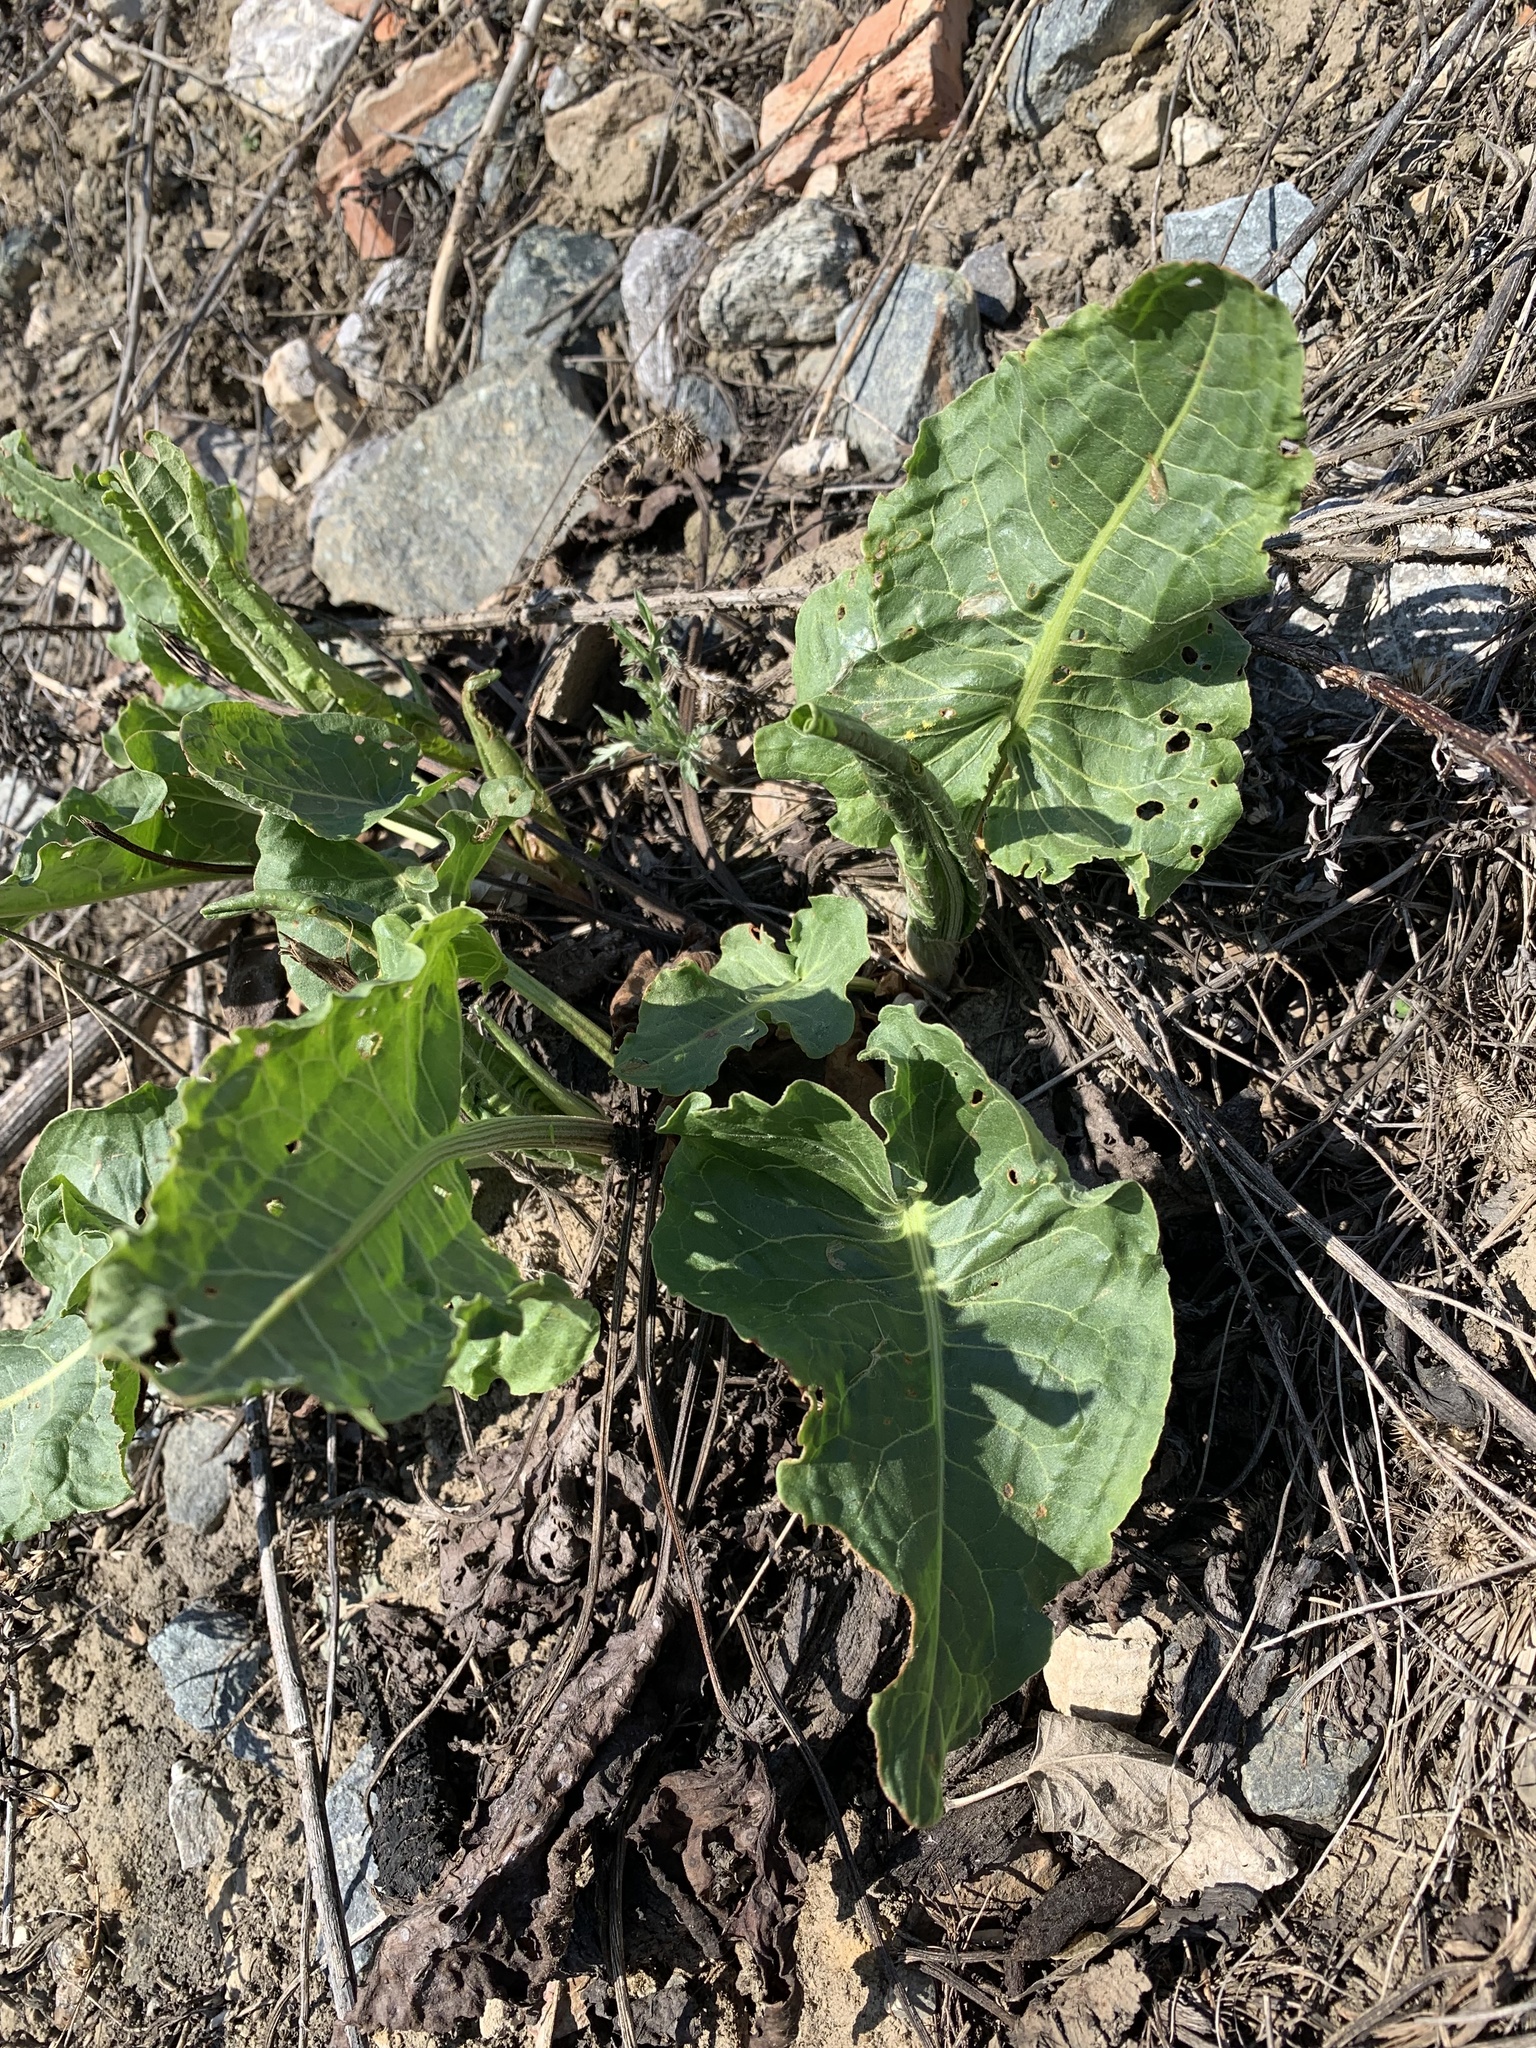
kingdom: Plantae
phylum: Tracheophyta
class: Magnoliopsida
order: Caryophyllales
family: Polygonaceae
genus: Rumex
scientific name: Rumex confertus
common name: Russian dock
